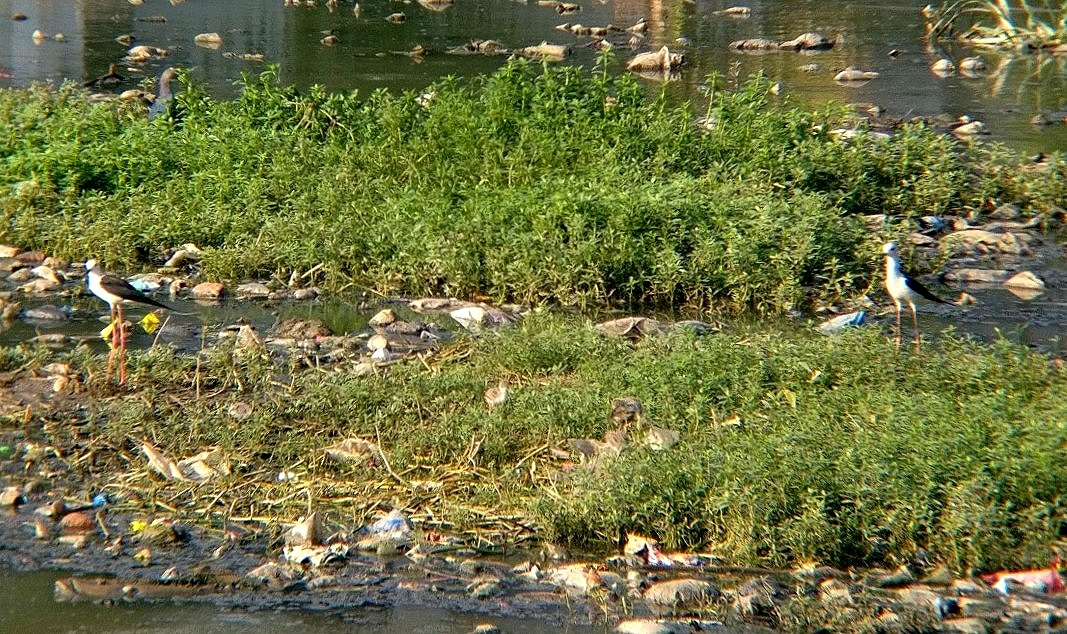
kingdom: Animalia
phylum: Chordata
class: Aves
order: Charadriiformes
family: Recurvirostridae
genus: Himantopus
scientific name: Himantopus himantopus
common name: Black-winged stilt
